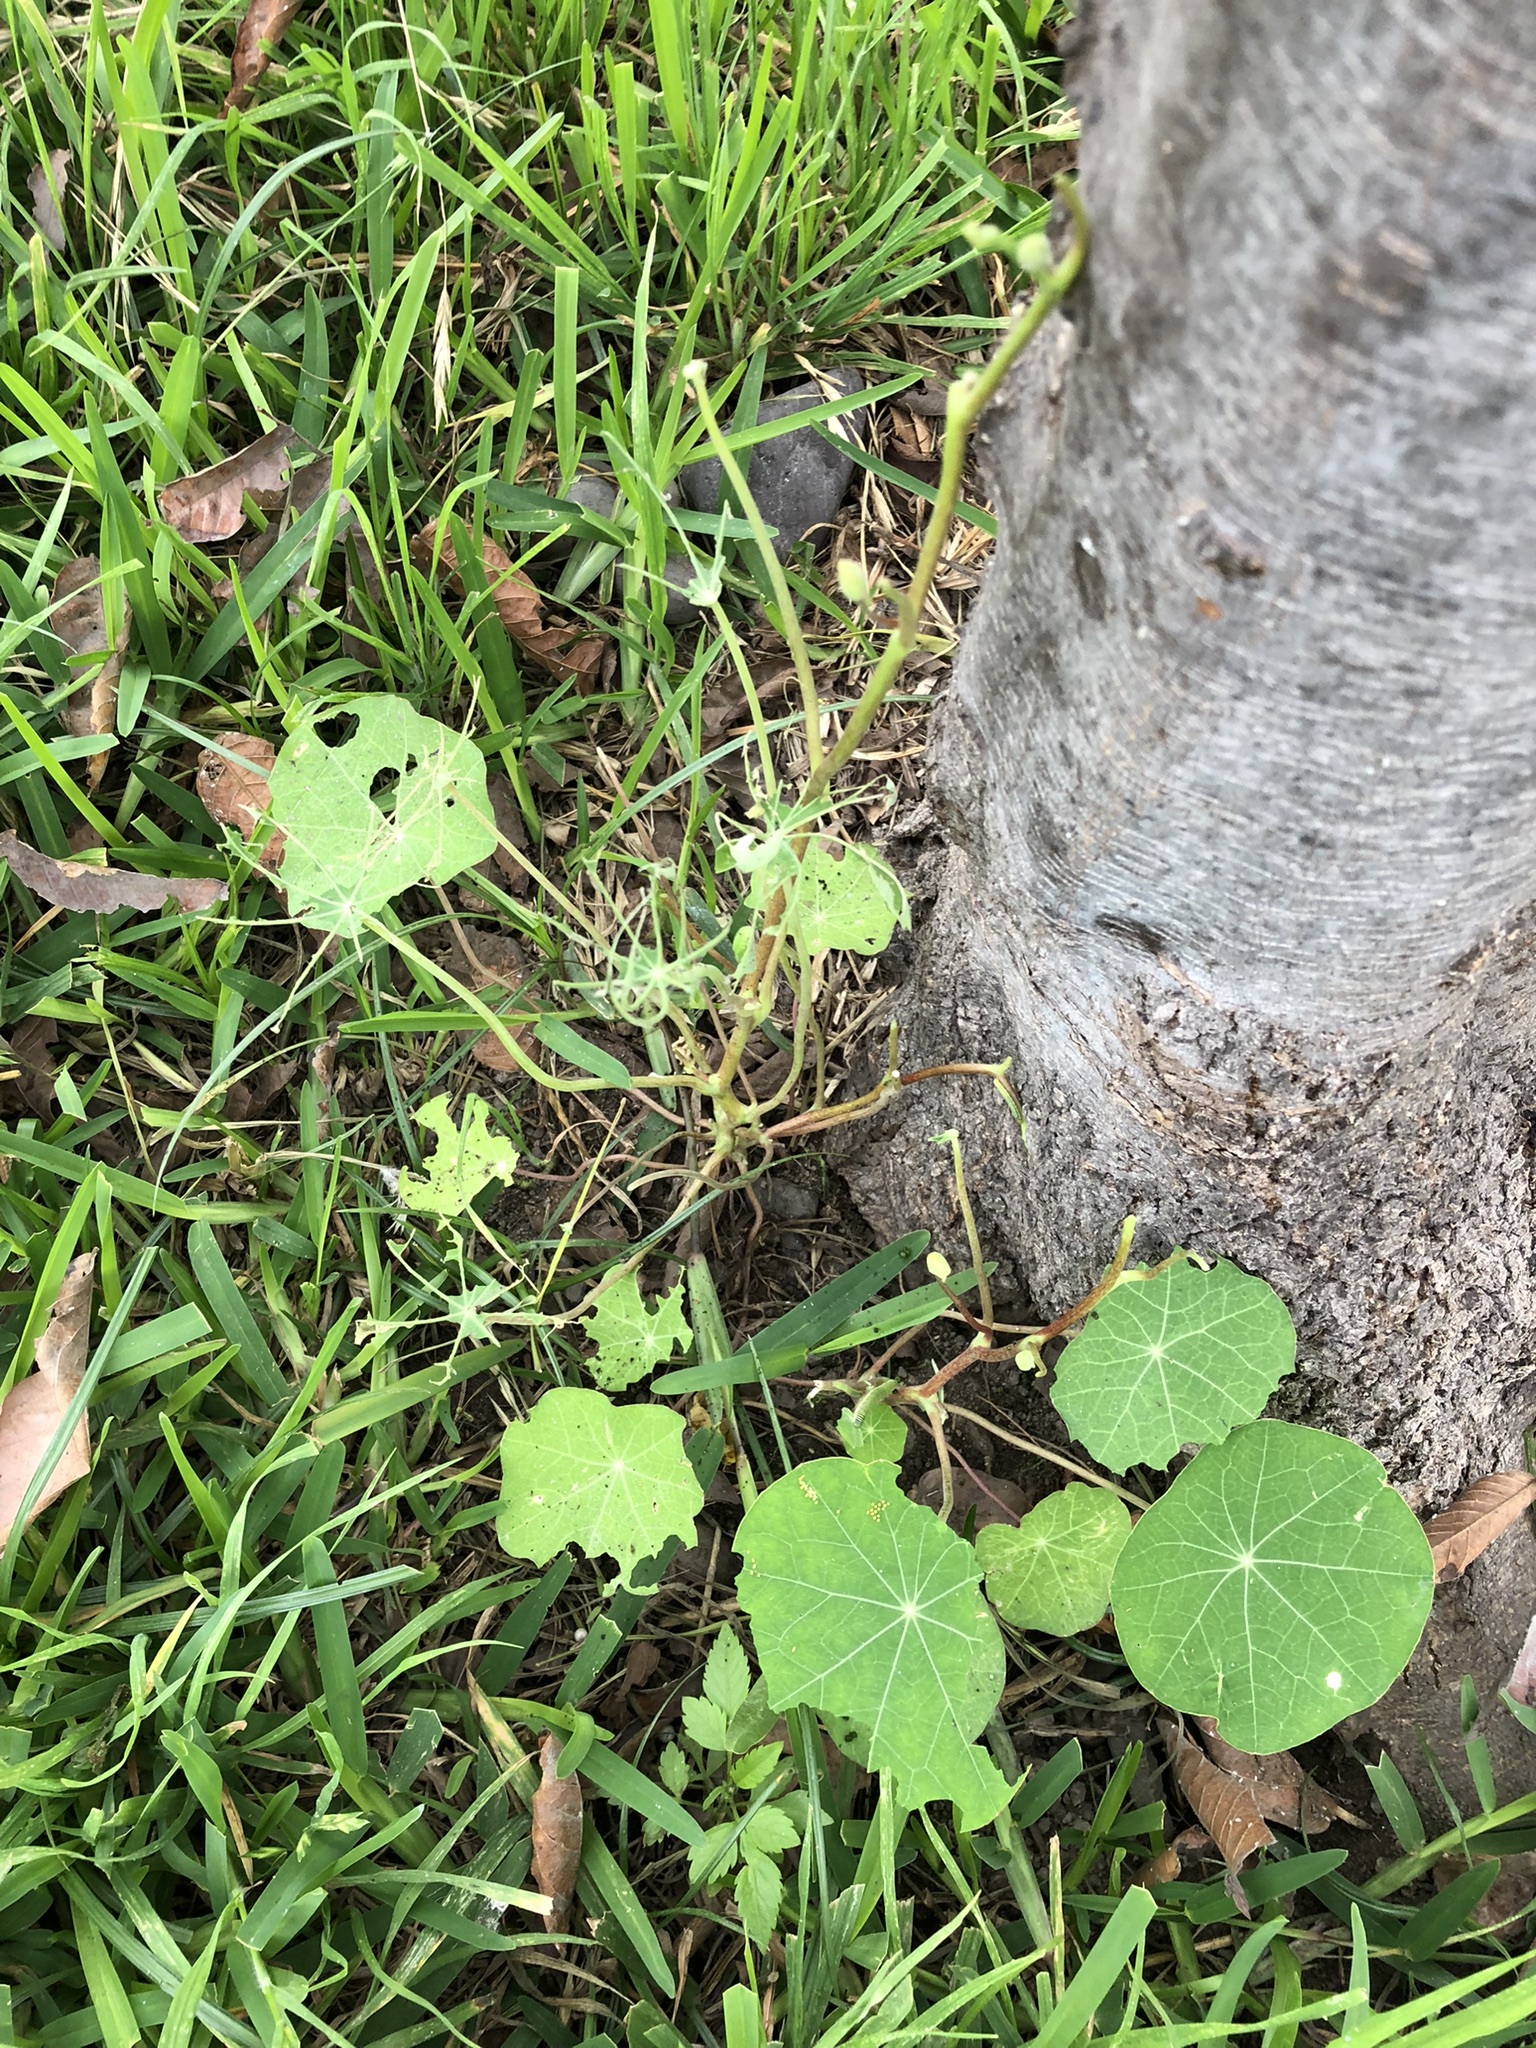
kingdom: Plantae
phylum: Tracheophyta
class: Magnoliopsida
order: Brassicales
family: Tropaeolaceae
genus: Tropaeolum
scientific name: Tropaeolum majus
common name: Nasturtium
